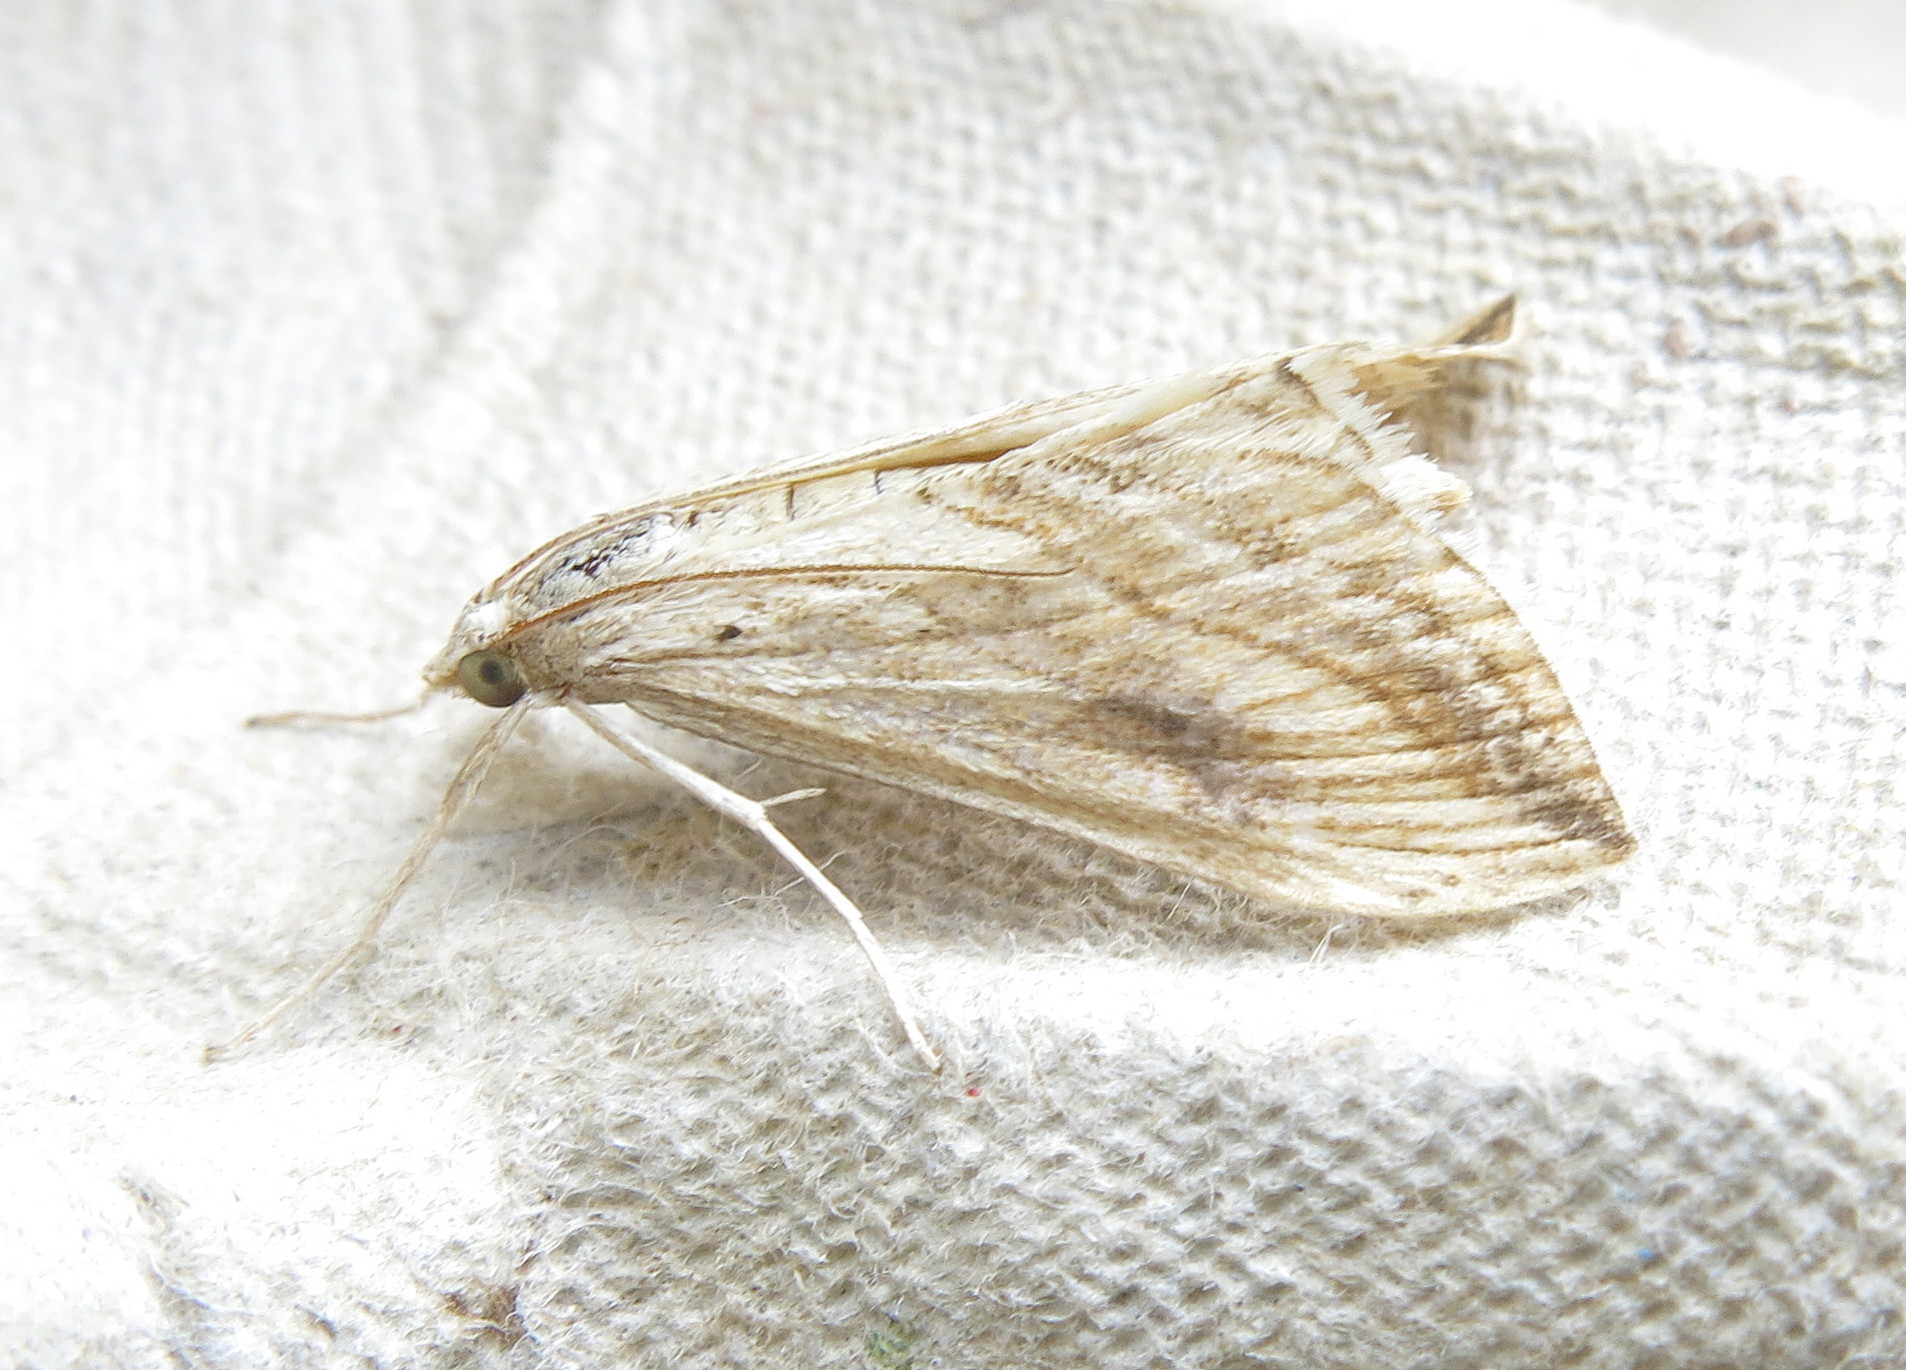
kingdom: Animalia
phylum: Arthropoda
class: Insecta
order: Lepidoptera
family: Crambidae
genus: Evergestis
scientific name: Evergestis forficalis
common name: Garden pebble
